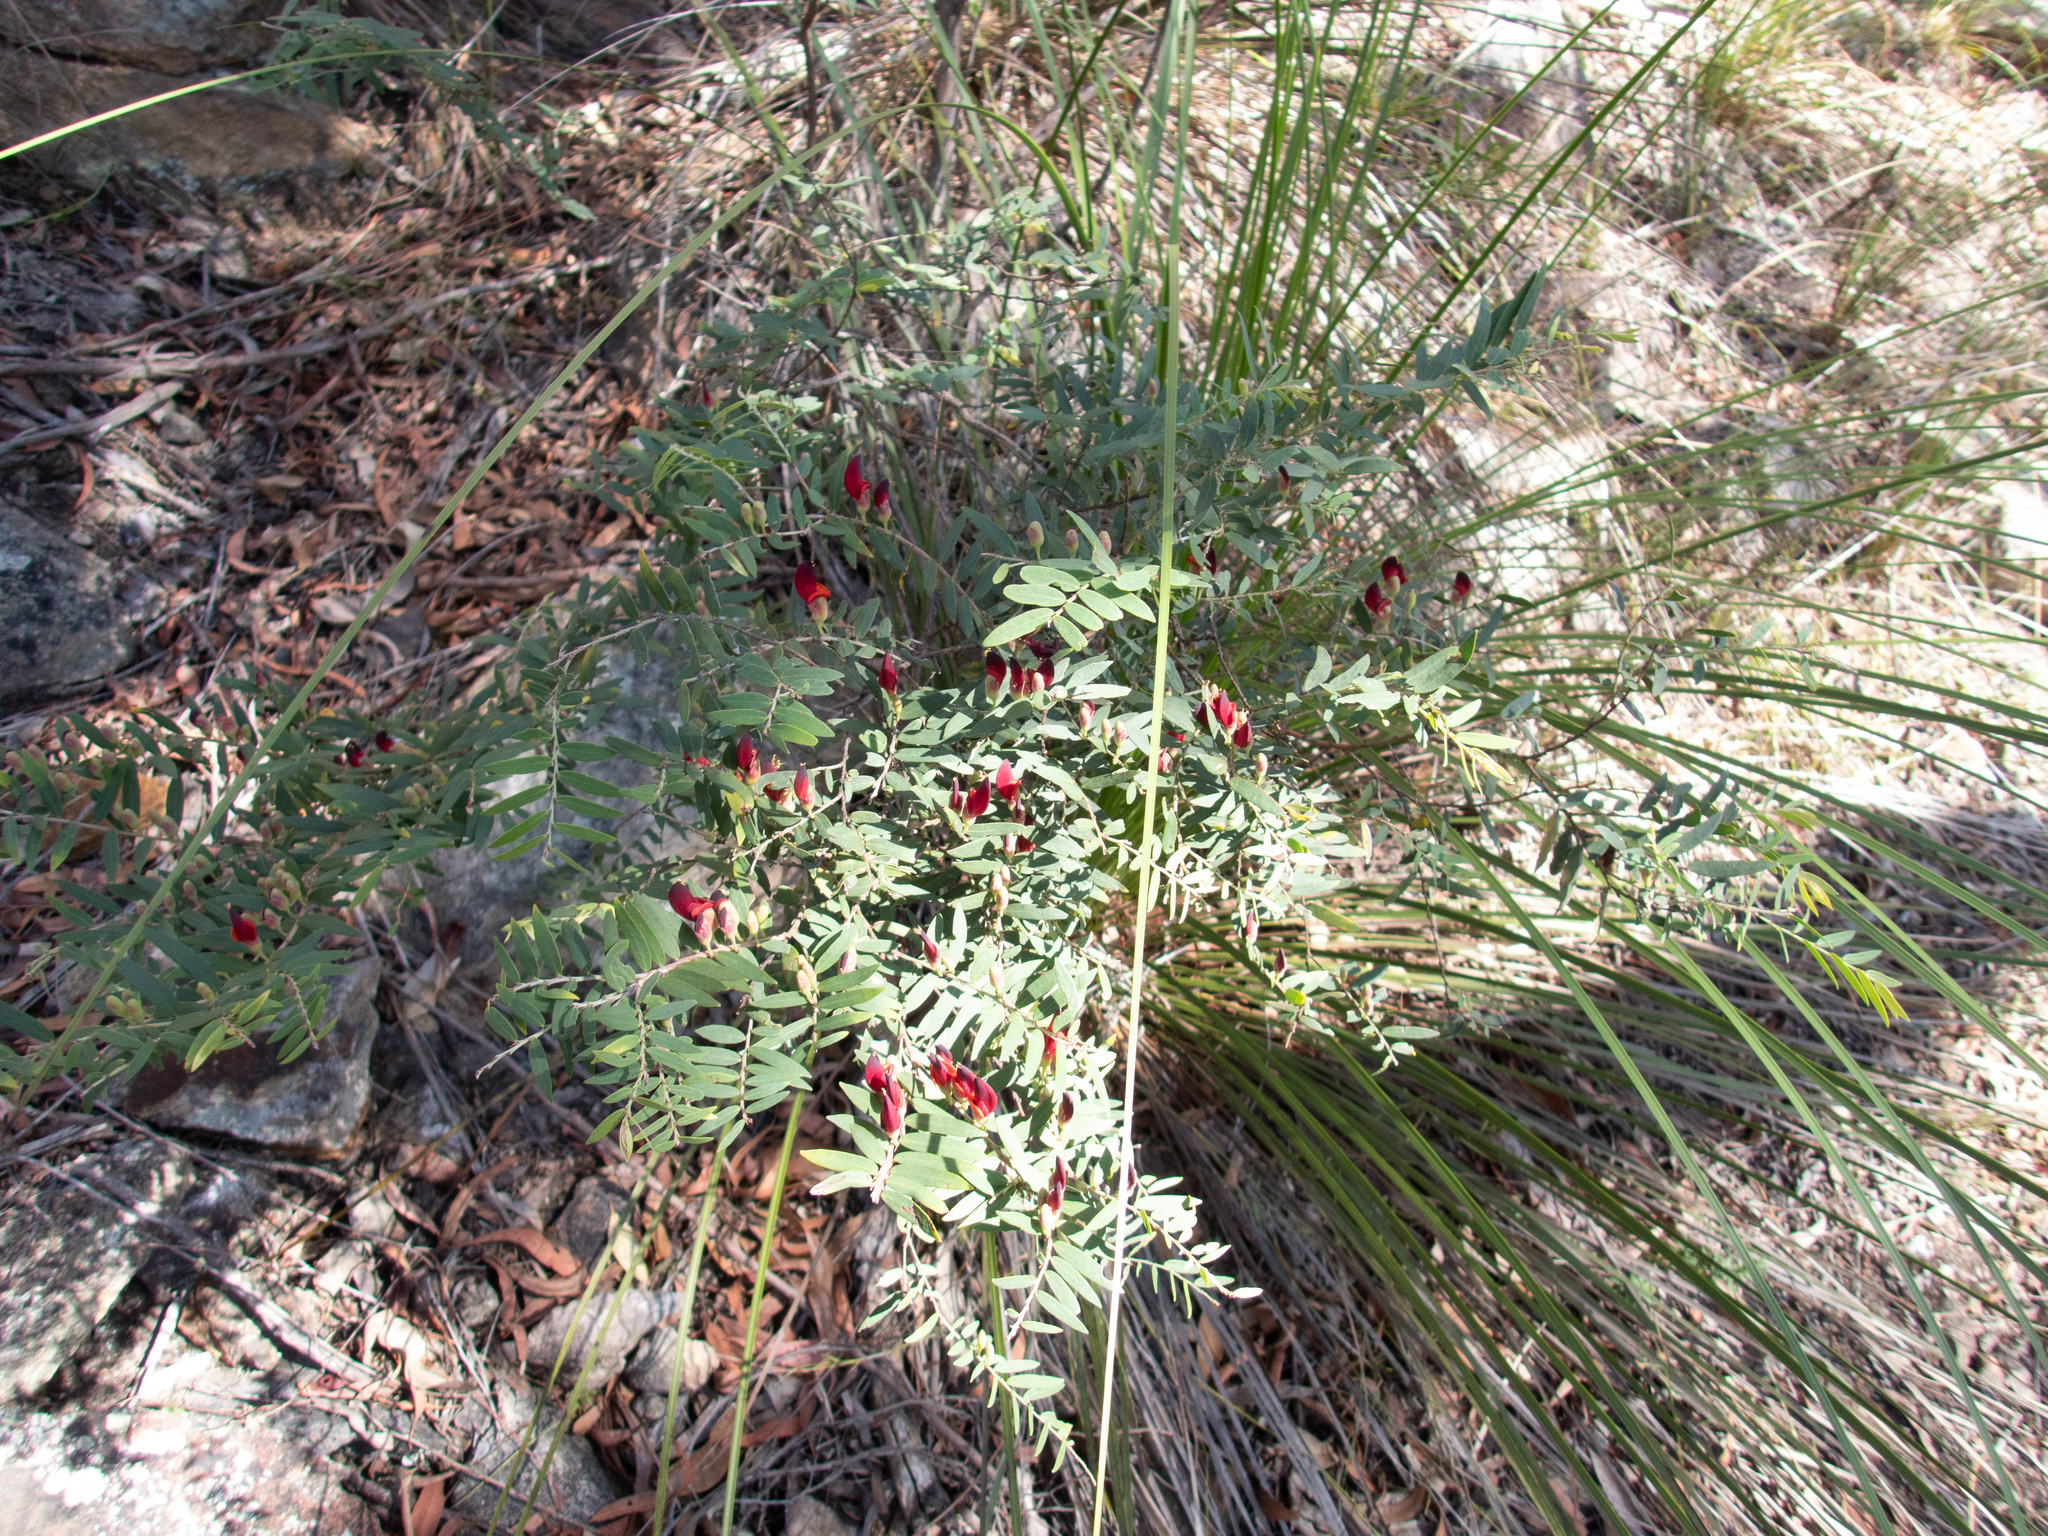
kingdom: Plantae
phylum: Tracheophyta
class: Magnoliopsida
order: Fabales
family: Fabaceae
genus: Bossiaea
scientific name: Bossiaea rupicola
